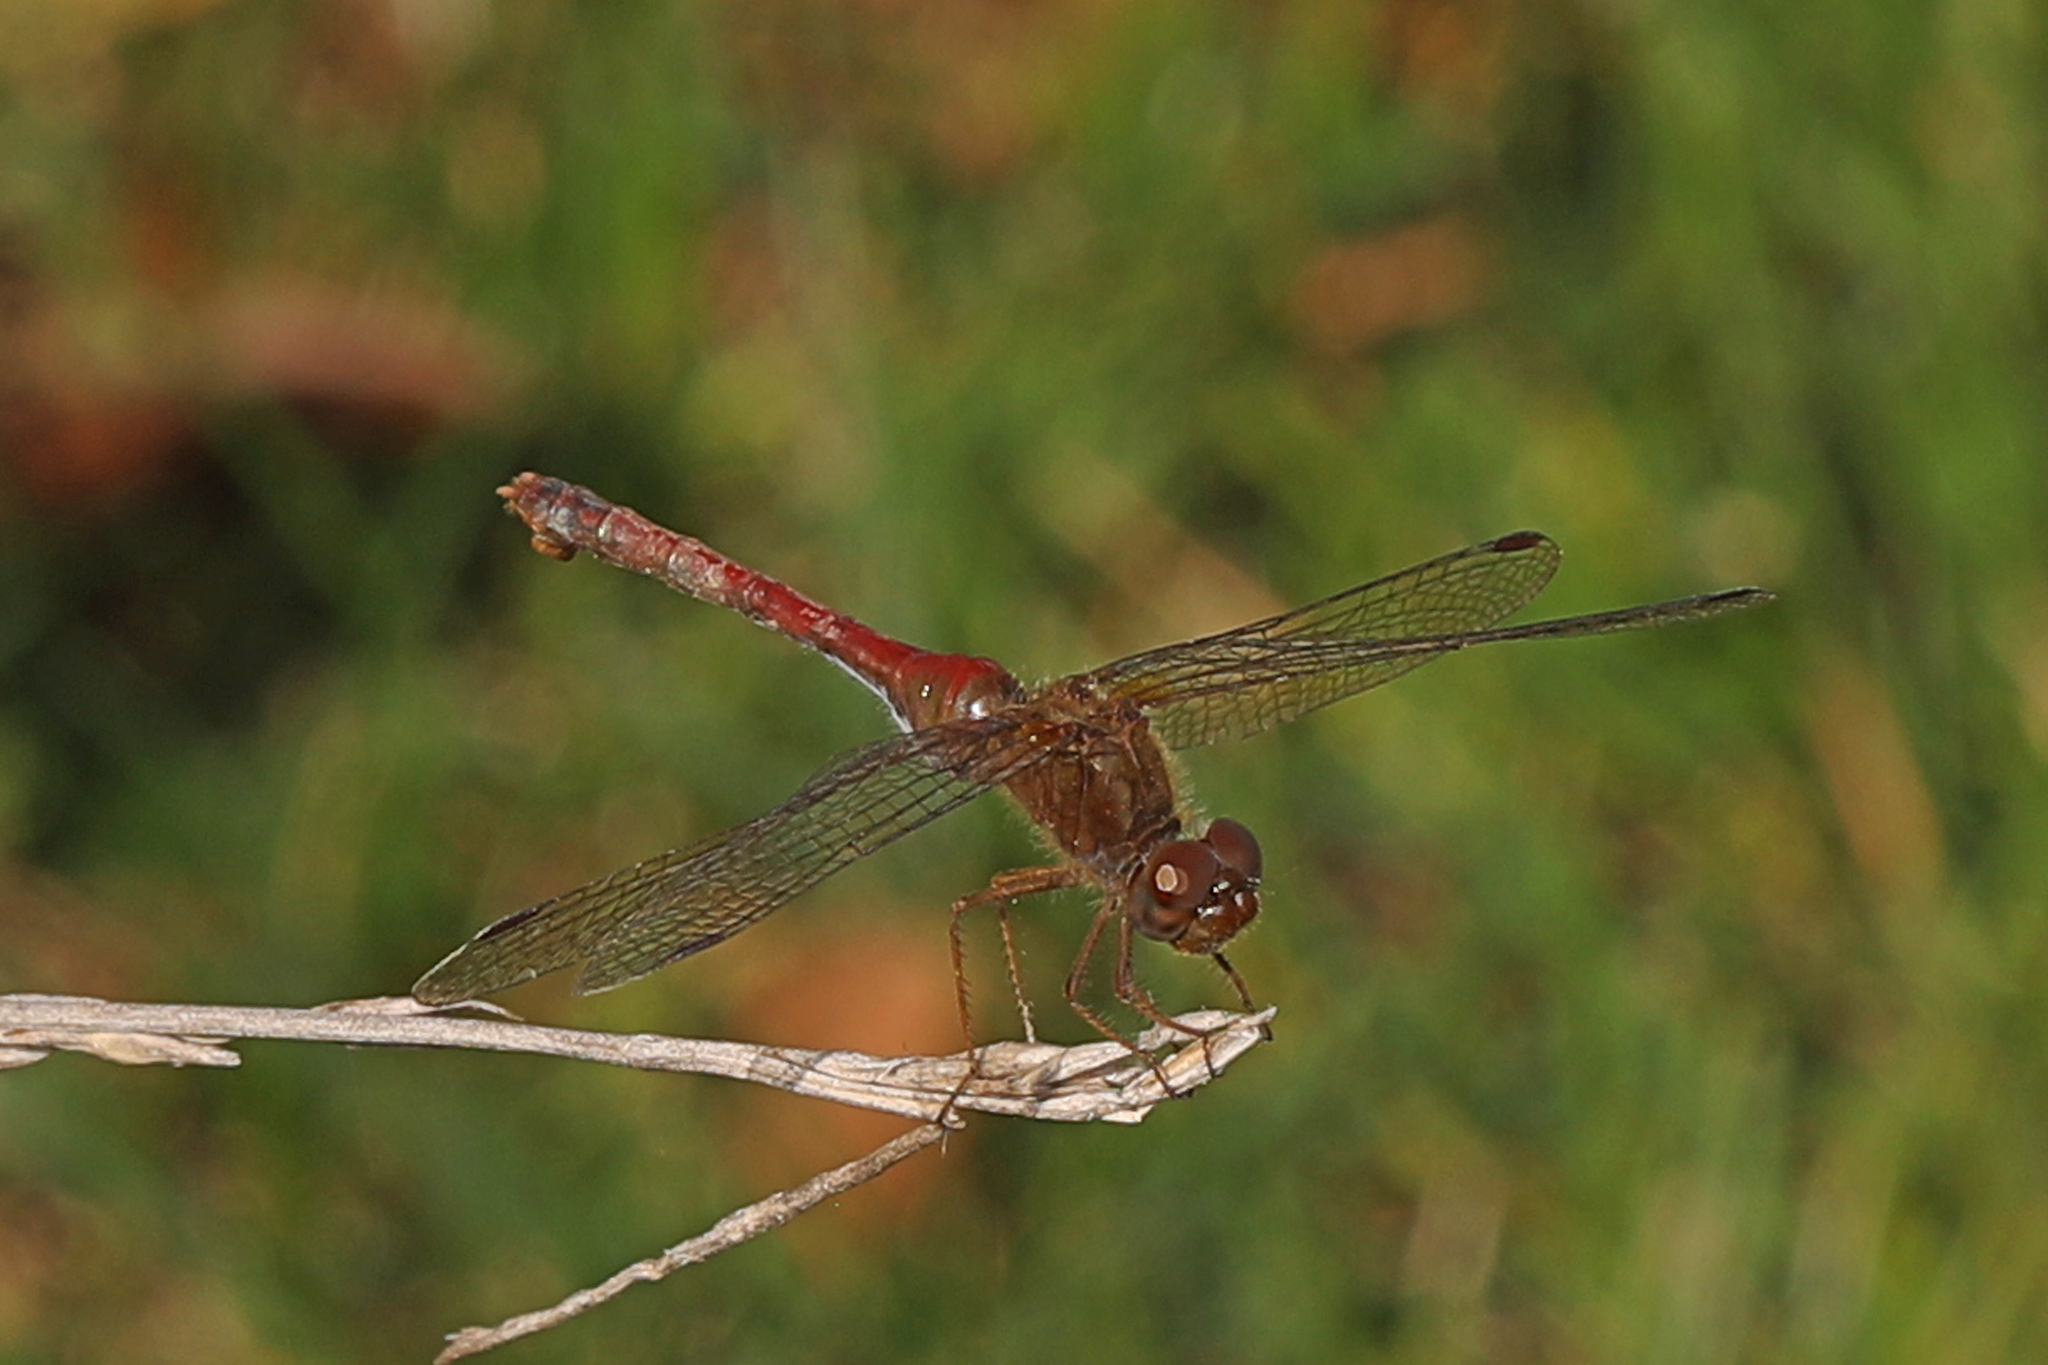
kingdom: Animalia
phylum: Arthropoda
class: Insecta
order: Odonata
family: Libellulidae
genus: Sympetrum
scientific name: Sympetrum vicinum
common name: Autumn meadowhawk
